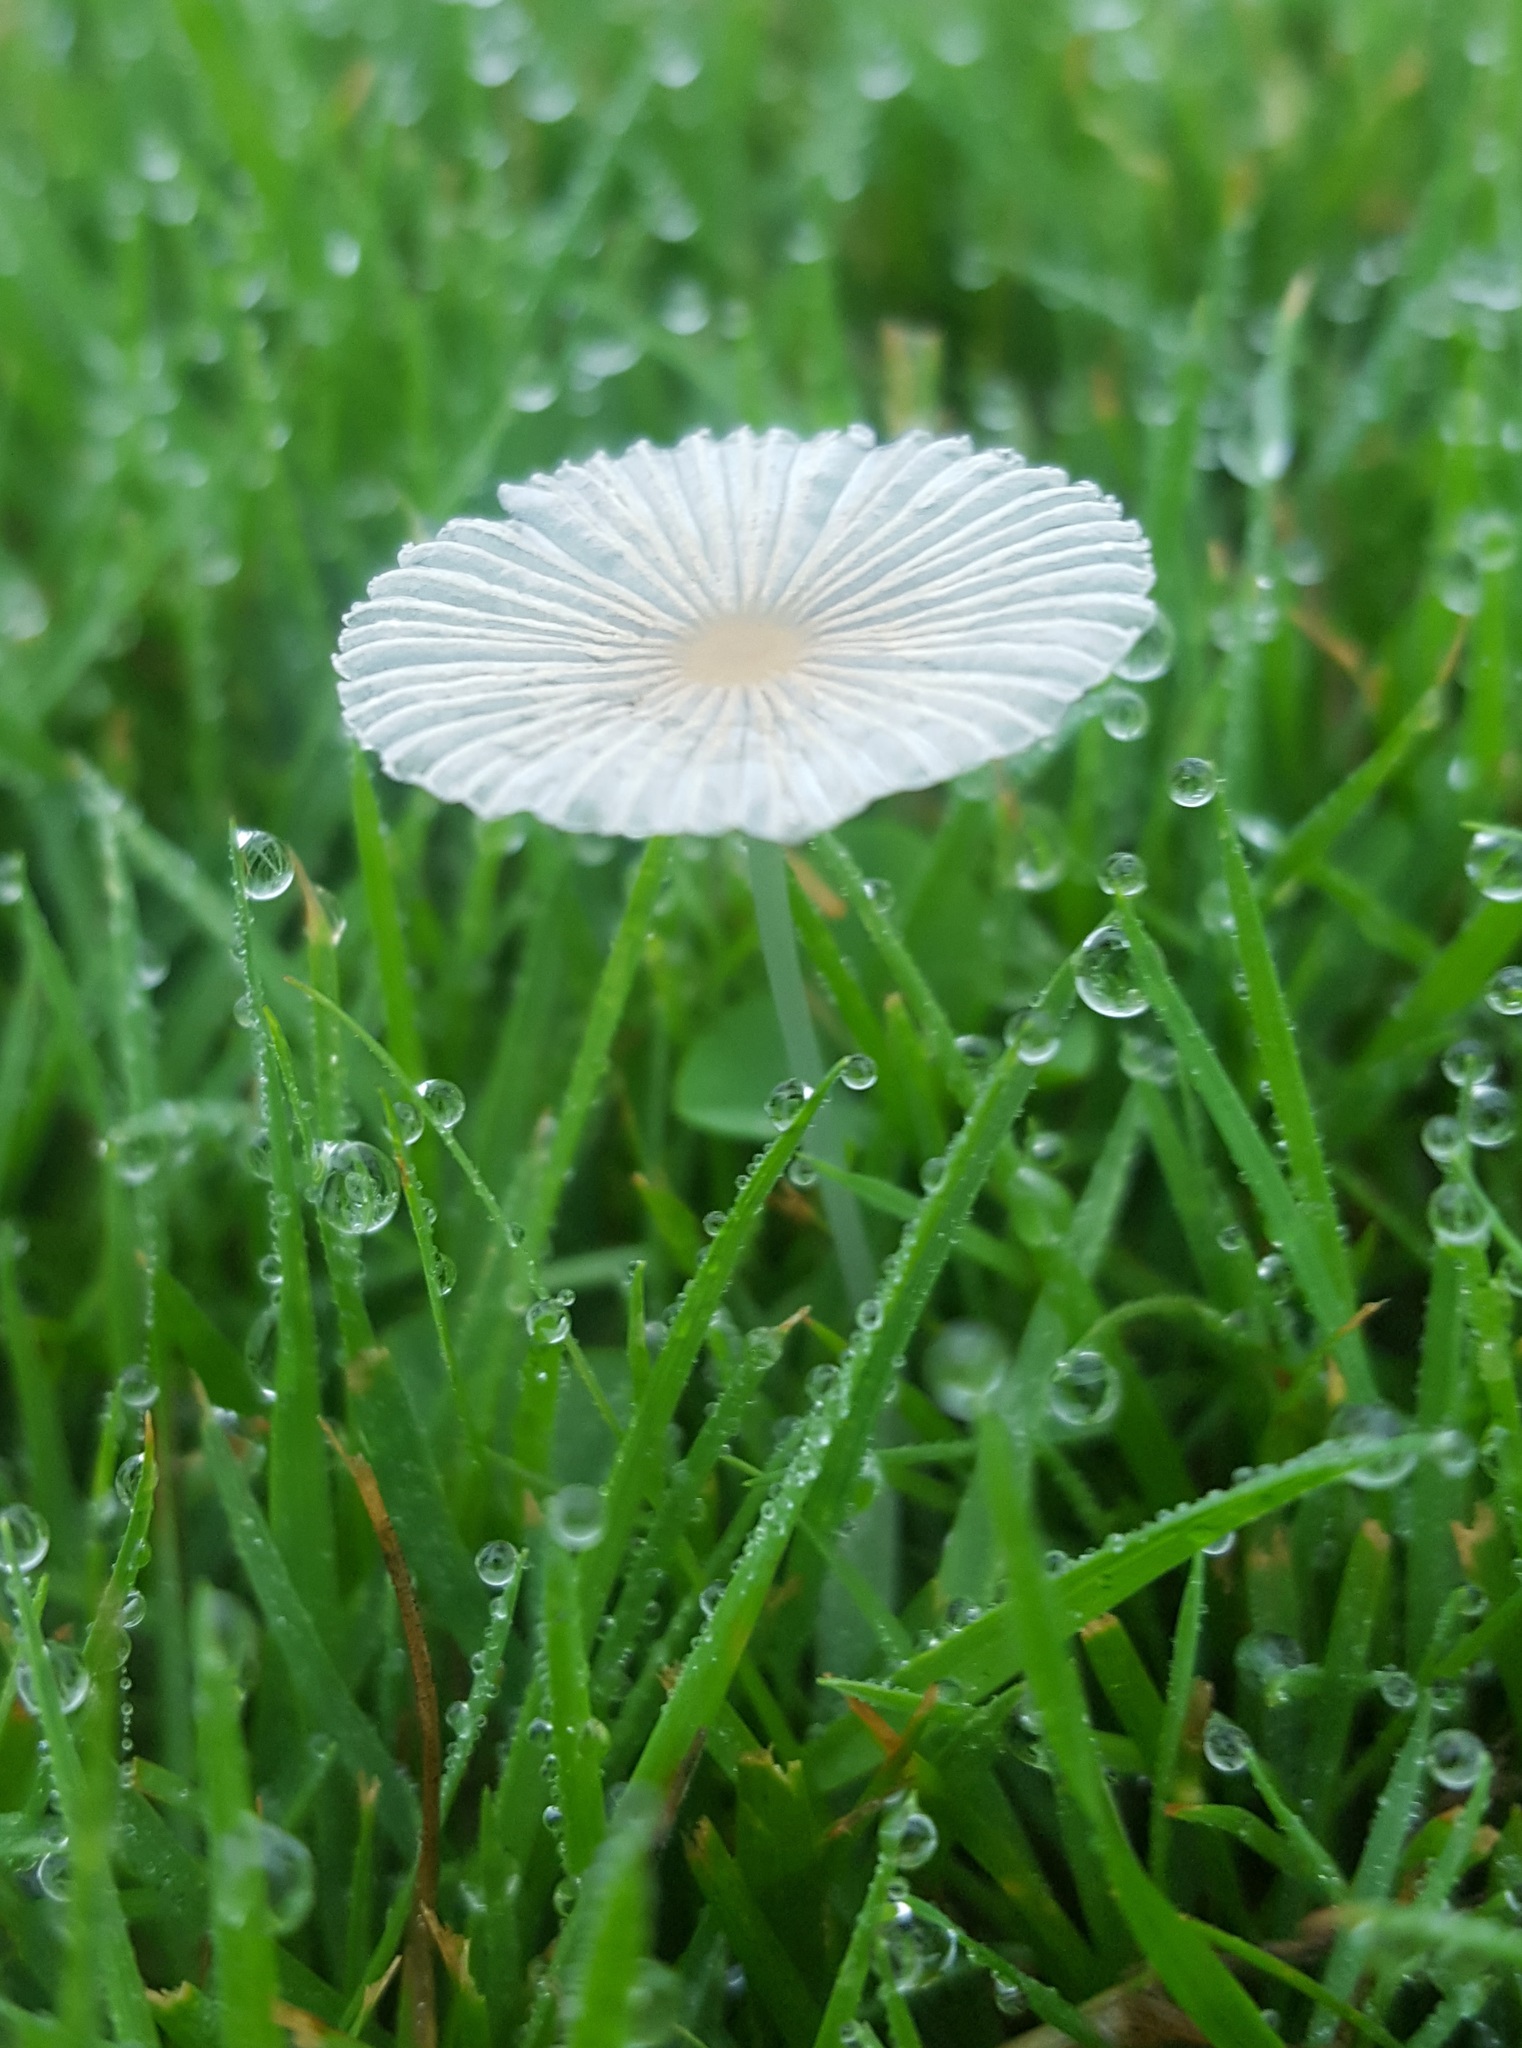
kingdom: Fungi
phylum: Basidiomycota
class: Agaricomycetes
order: Agaricales
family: Psathyrellaceae
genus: Parasola
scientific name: Parasola plicatilis
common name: Pleated inkcap
